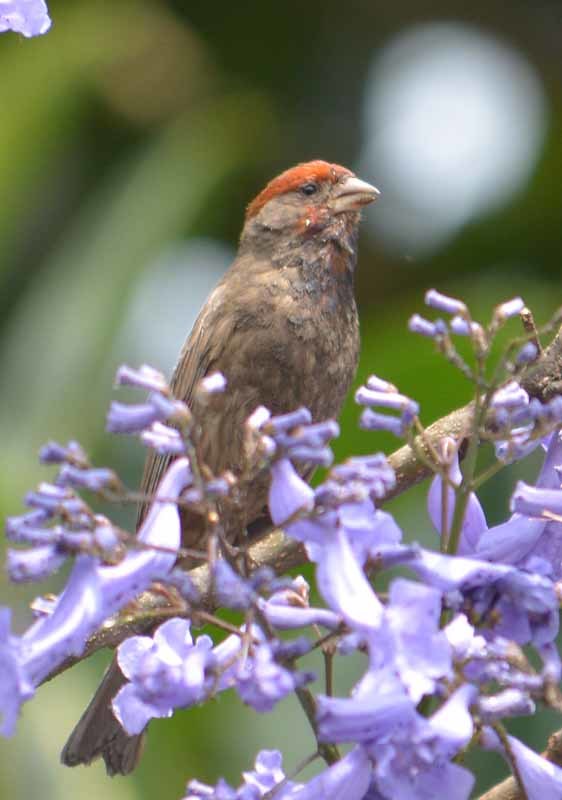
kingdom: Animalia
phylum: Chordata
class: Aves
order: Passeriformes
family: Fringillidae
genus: Haemorhous
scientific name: Haemorhous mexicanus
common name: House finch
